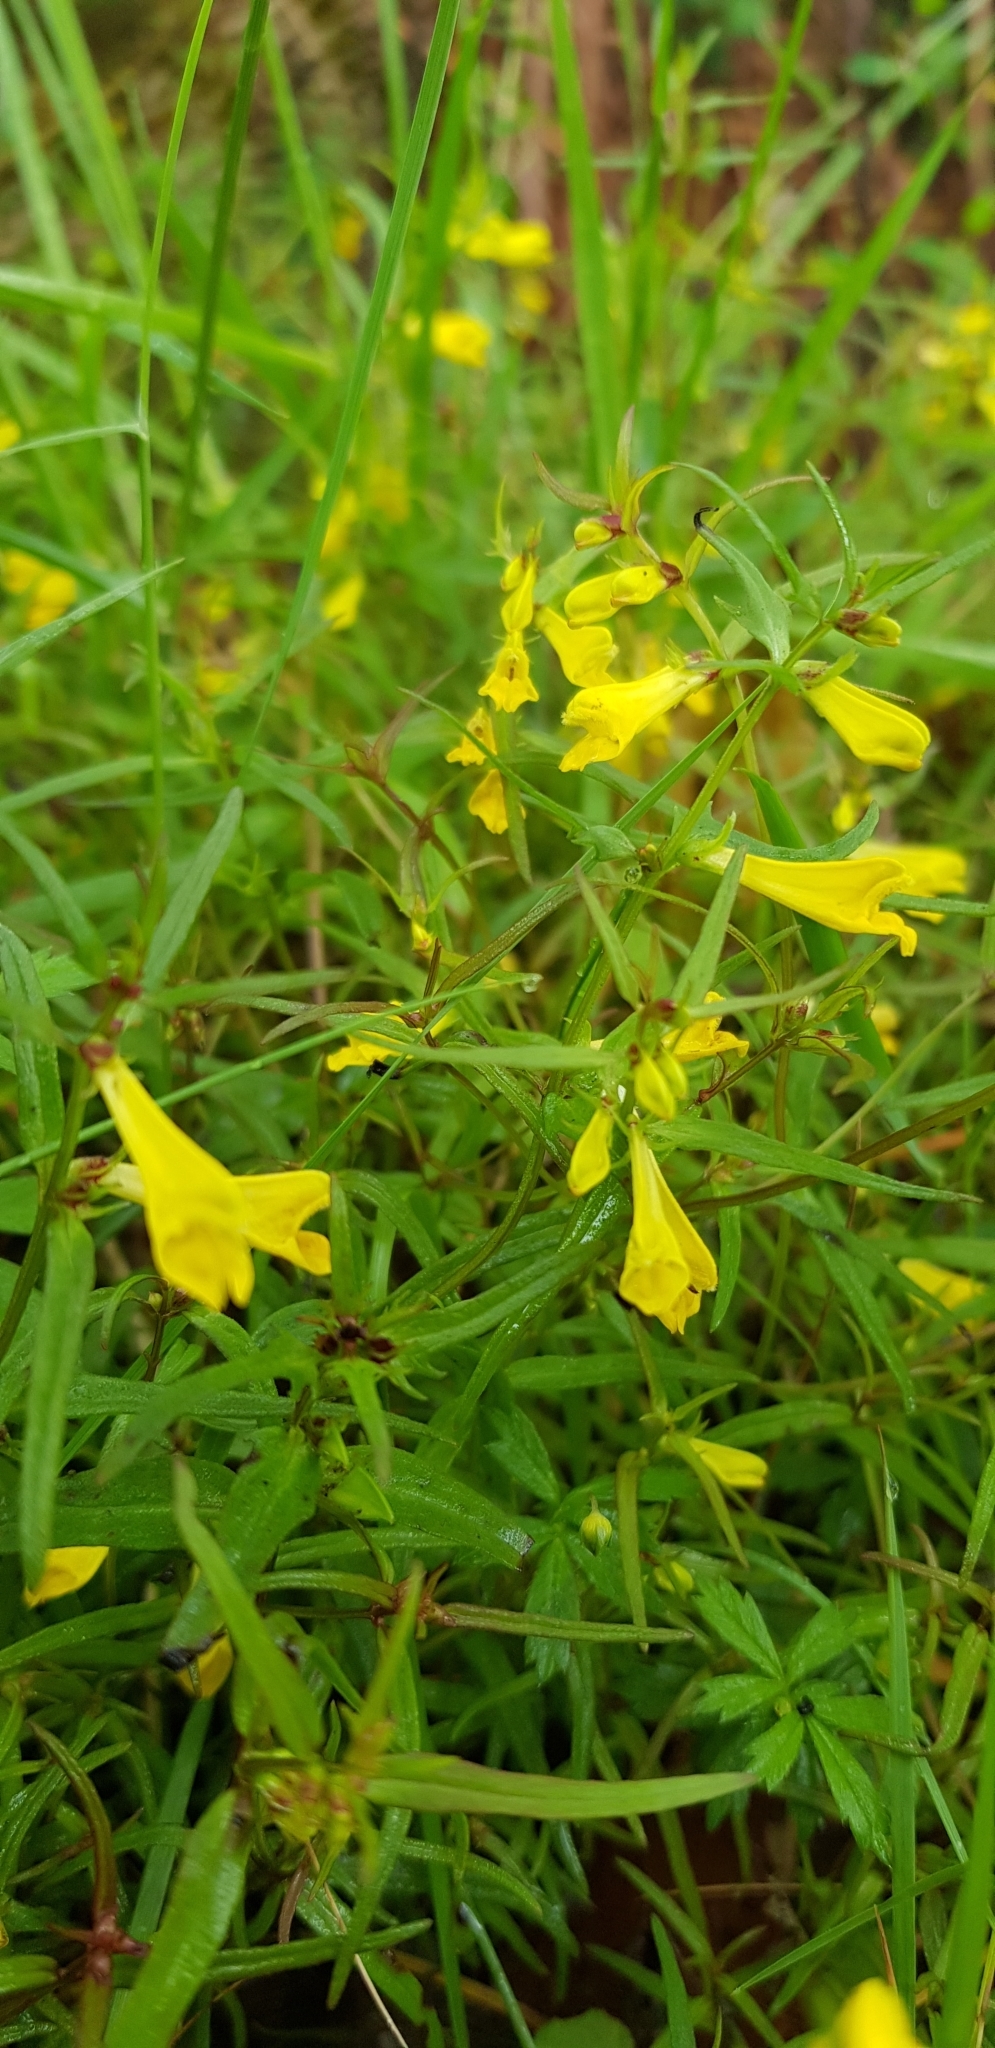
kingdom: Plantae
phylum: Tracheophyta
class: Magnoliopsida
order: Lamiales
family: Orobanchaceae
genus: Melampyrum
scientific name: Melampyrum pratense
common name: Common cow-wheat
